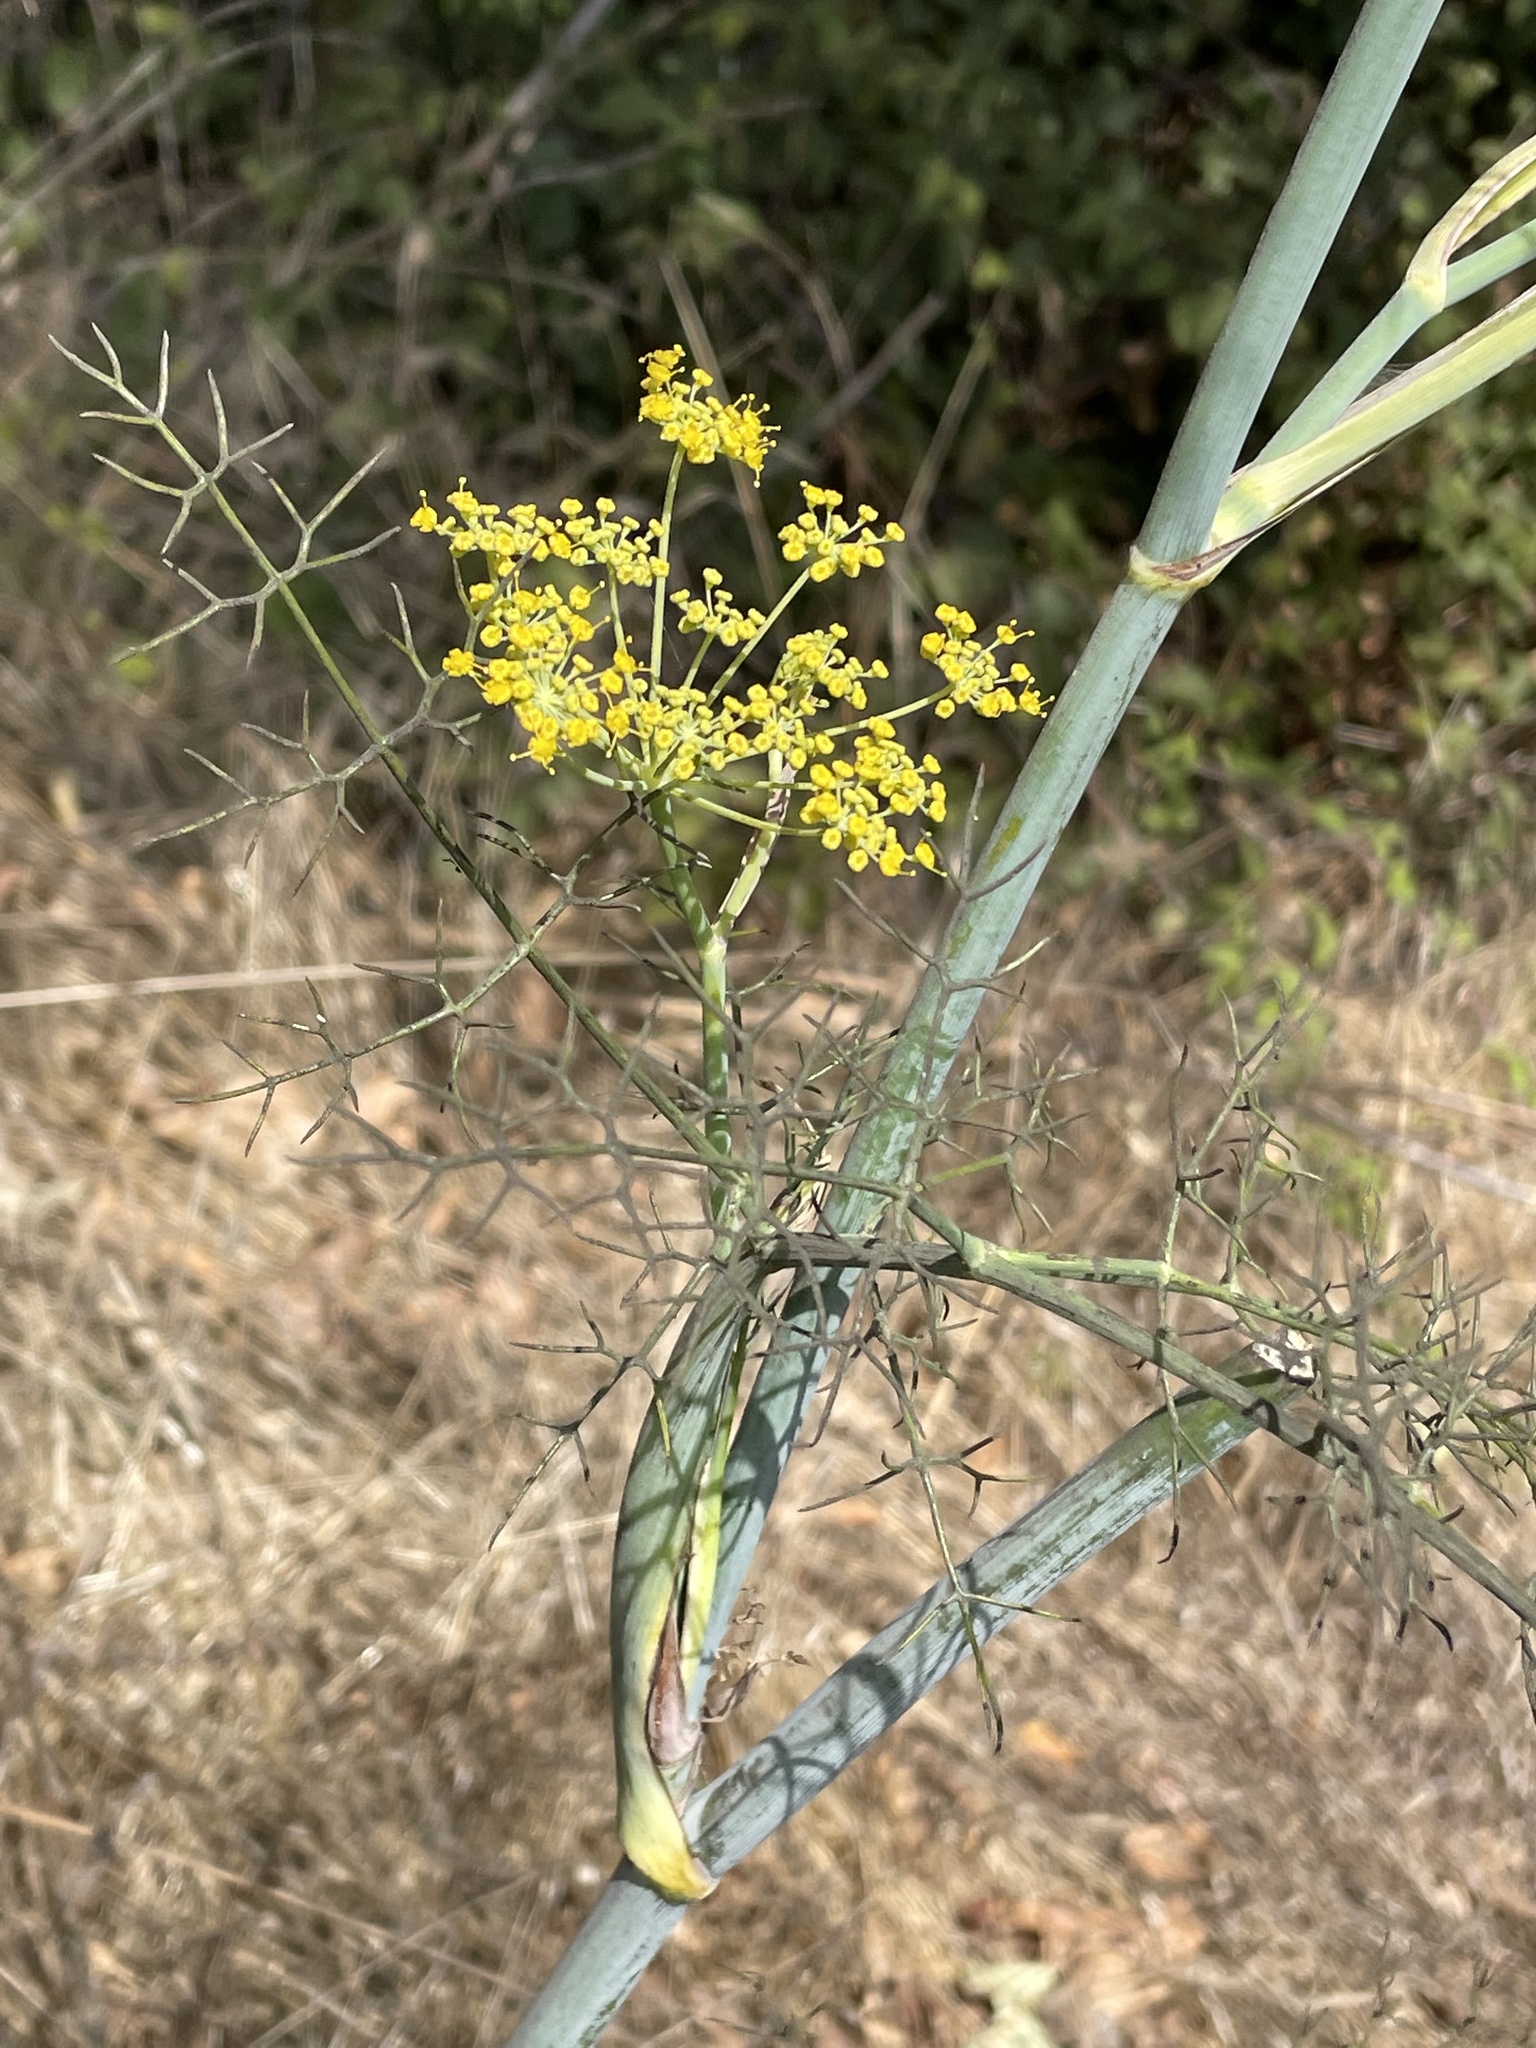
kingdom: Plantae
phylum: Tracheophyta
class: Magnoliopsida
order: Apiales
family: Apiaceae
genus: Foeniculum
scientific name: Foeniculum vulgare
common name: Fennel
